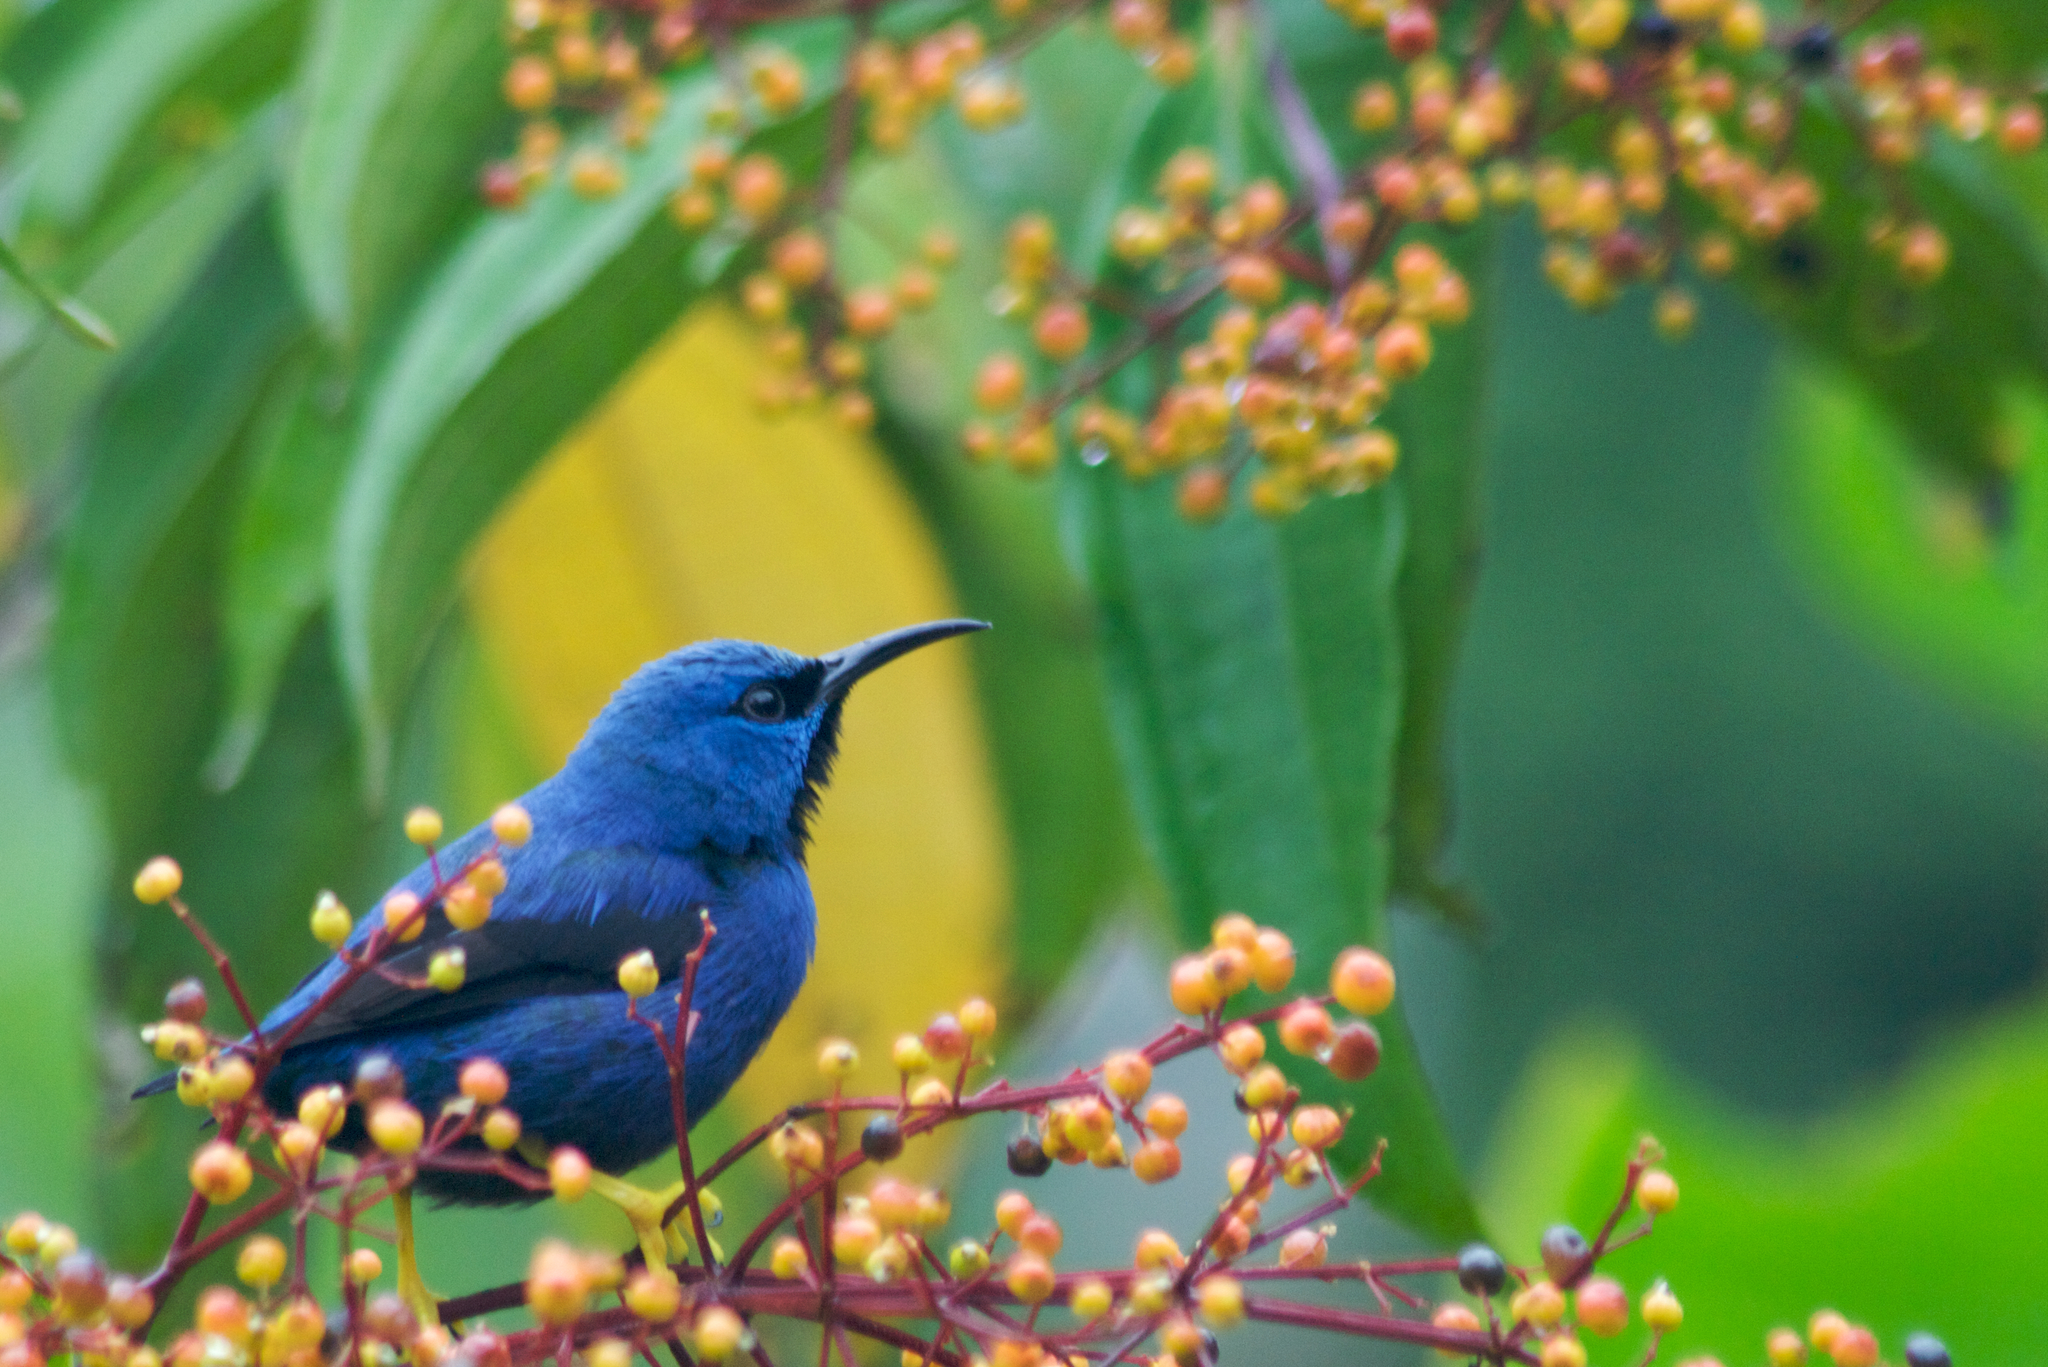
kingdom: Animalia
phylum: Chordata
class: Aves
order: Passeriformes
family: Thraupidae
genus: Cyanerpes
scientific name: Cyanerpes lucidus
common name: Shining honeycreeper
